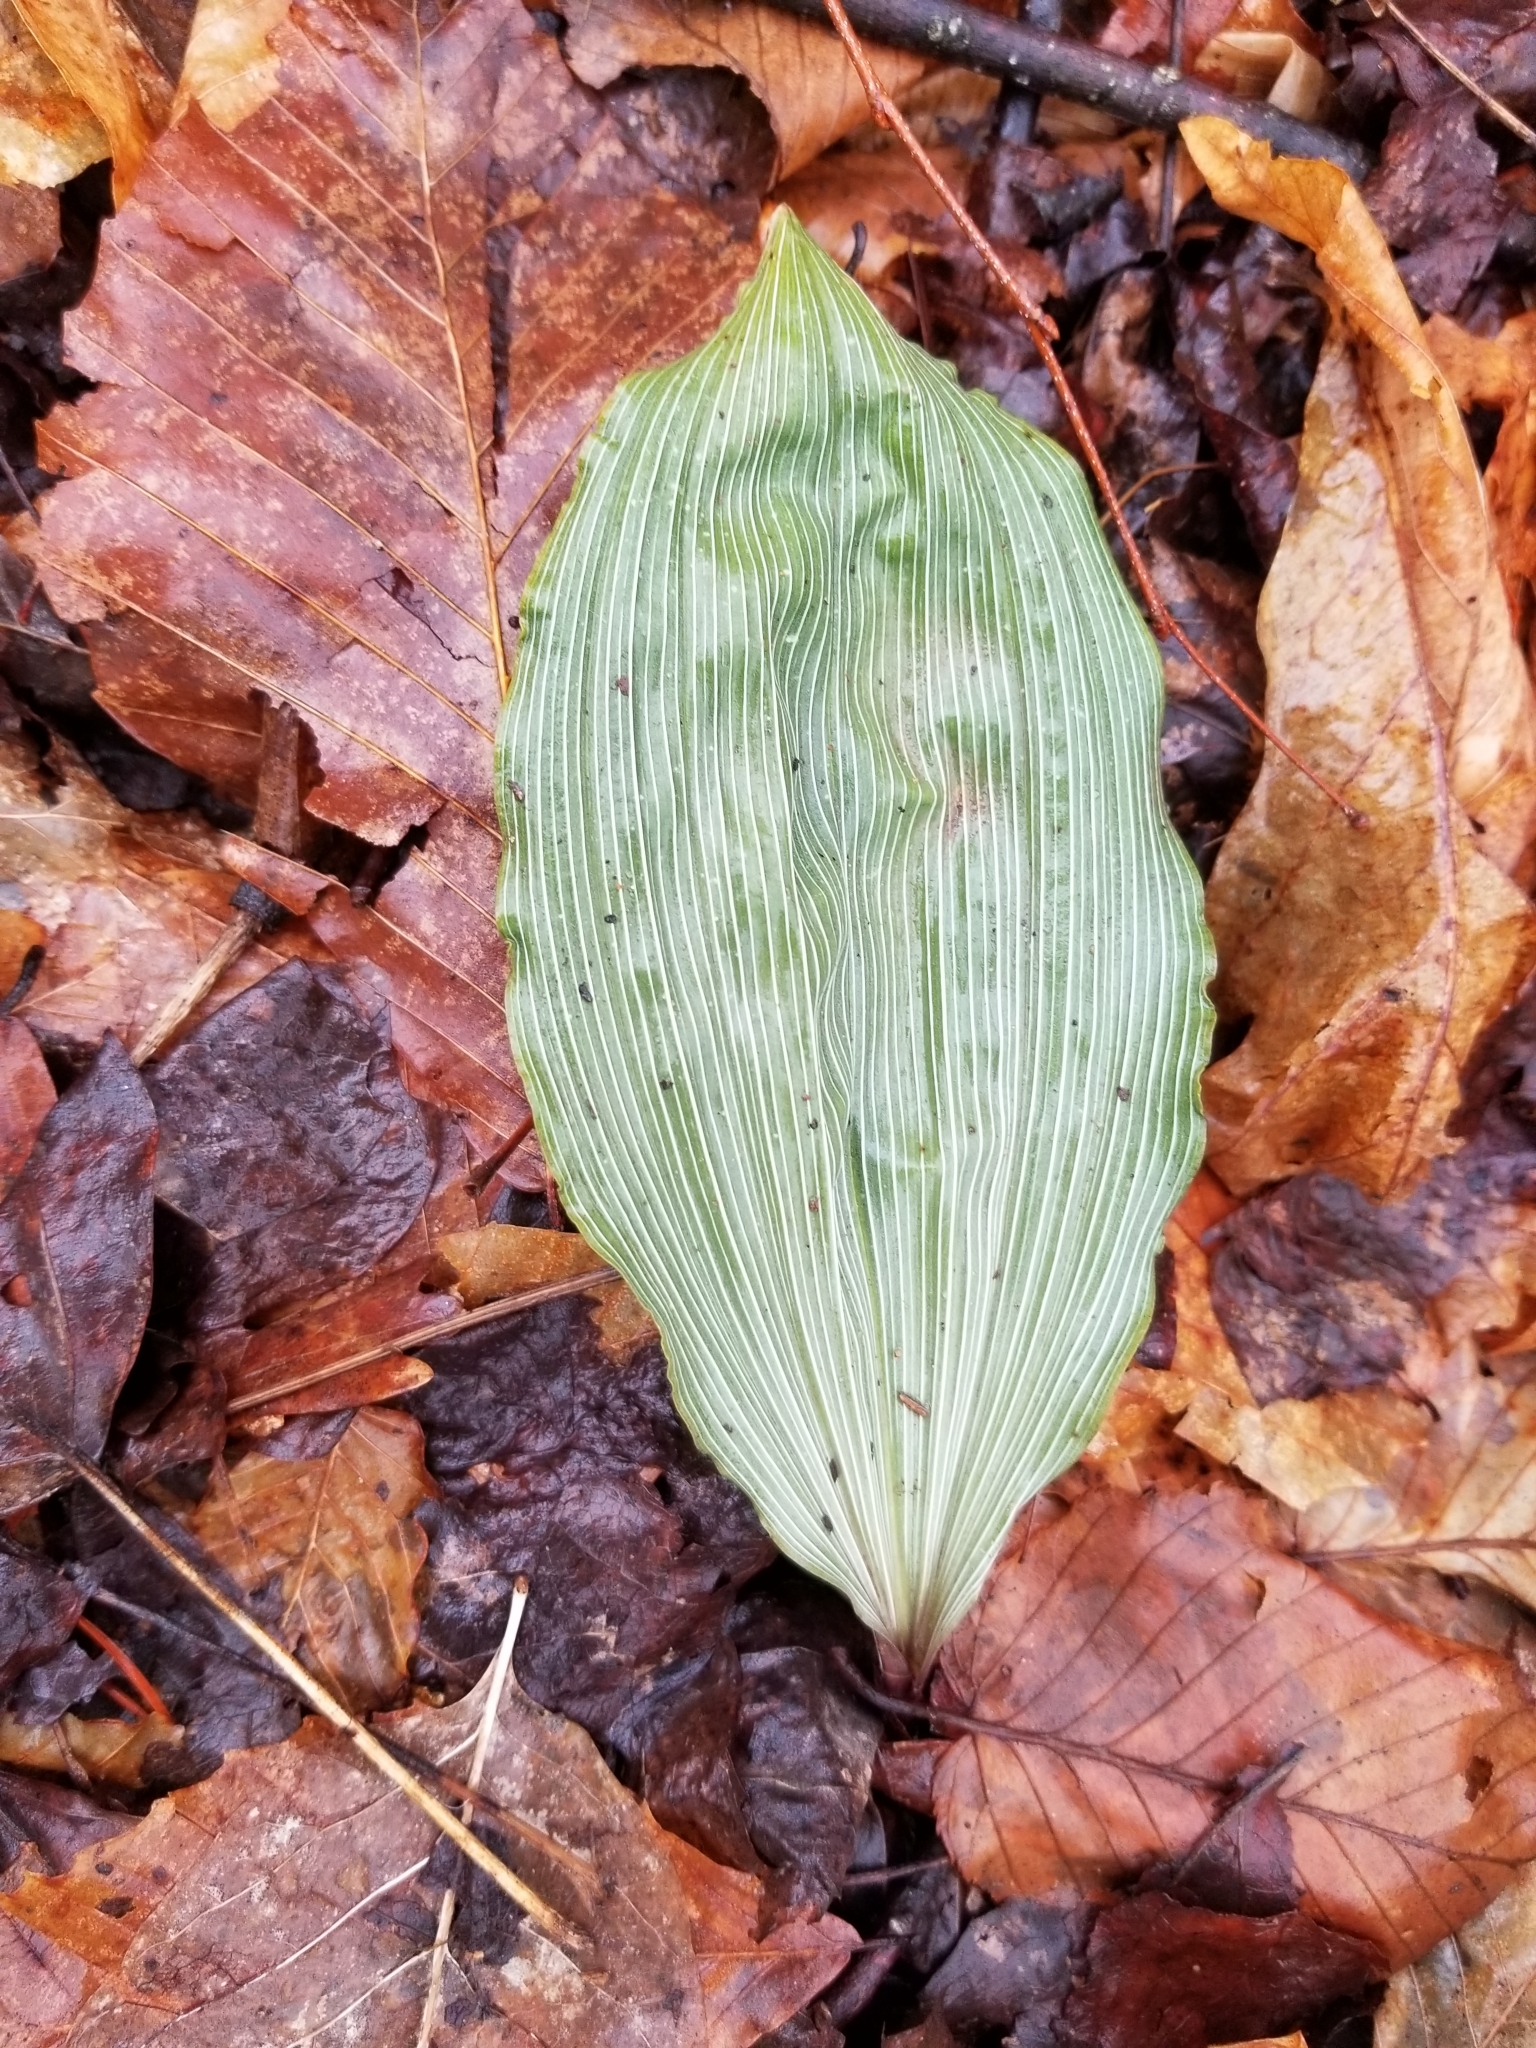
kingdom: Plantae
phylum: Tracheophyta
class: Liliopsida
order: Asparagales
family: Orchidaceae
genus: Aplectrum
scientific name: Aplectrum hyemale
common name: Adam-and-eve
